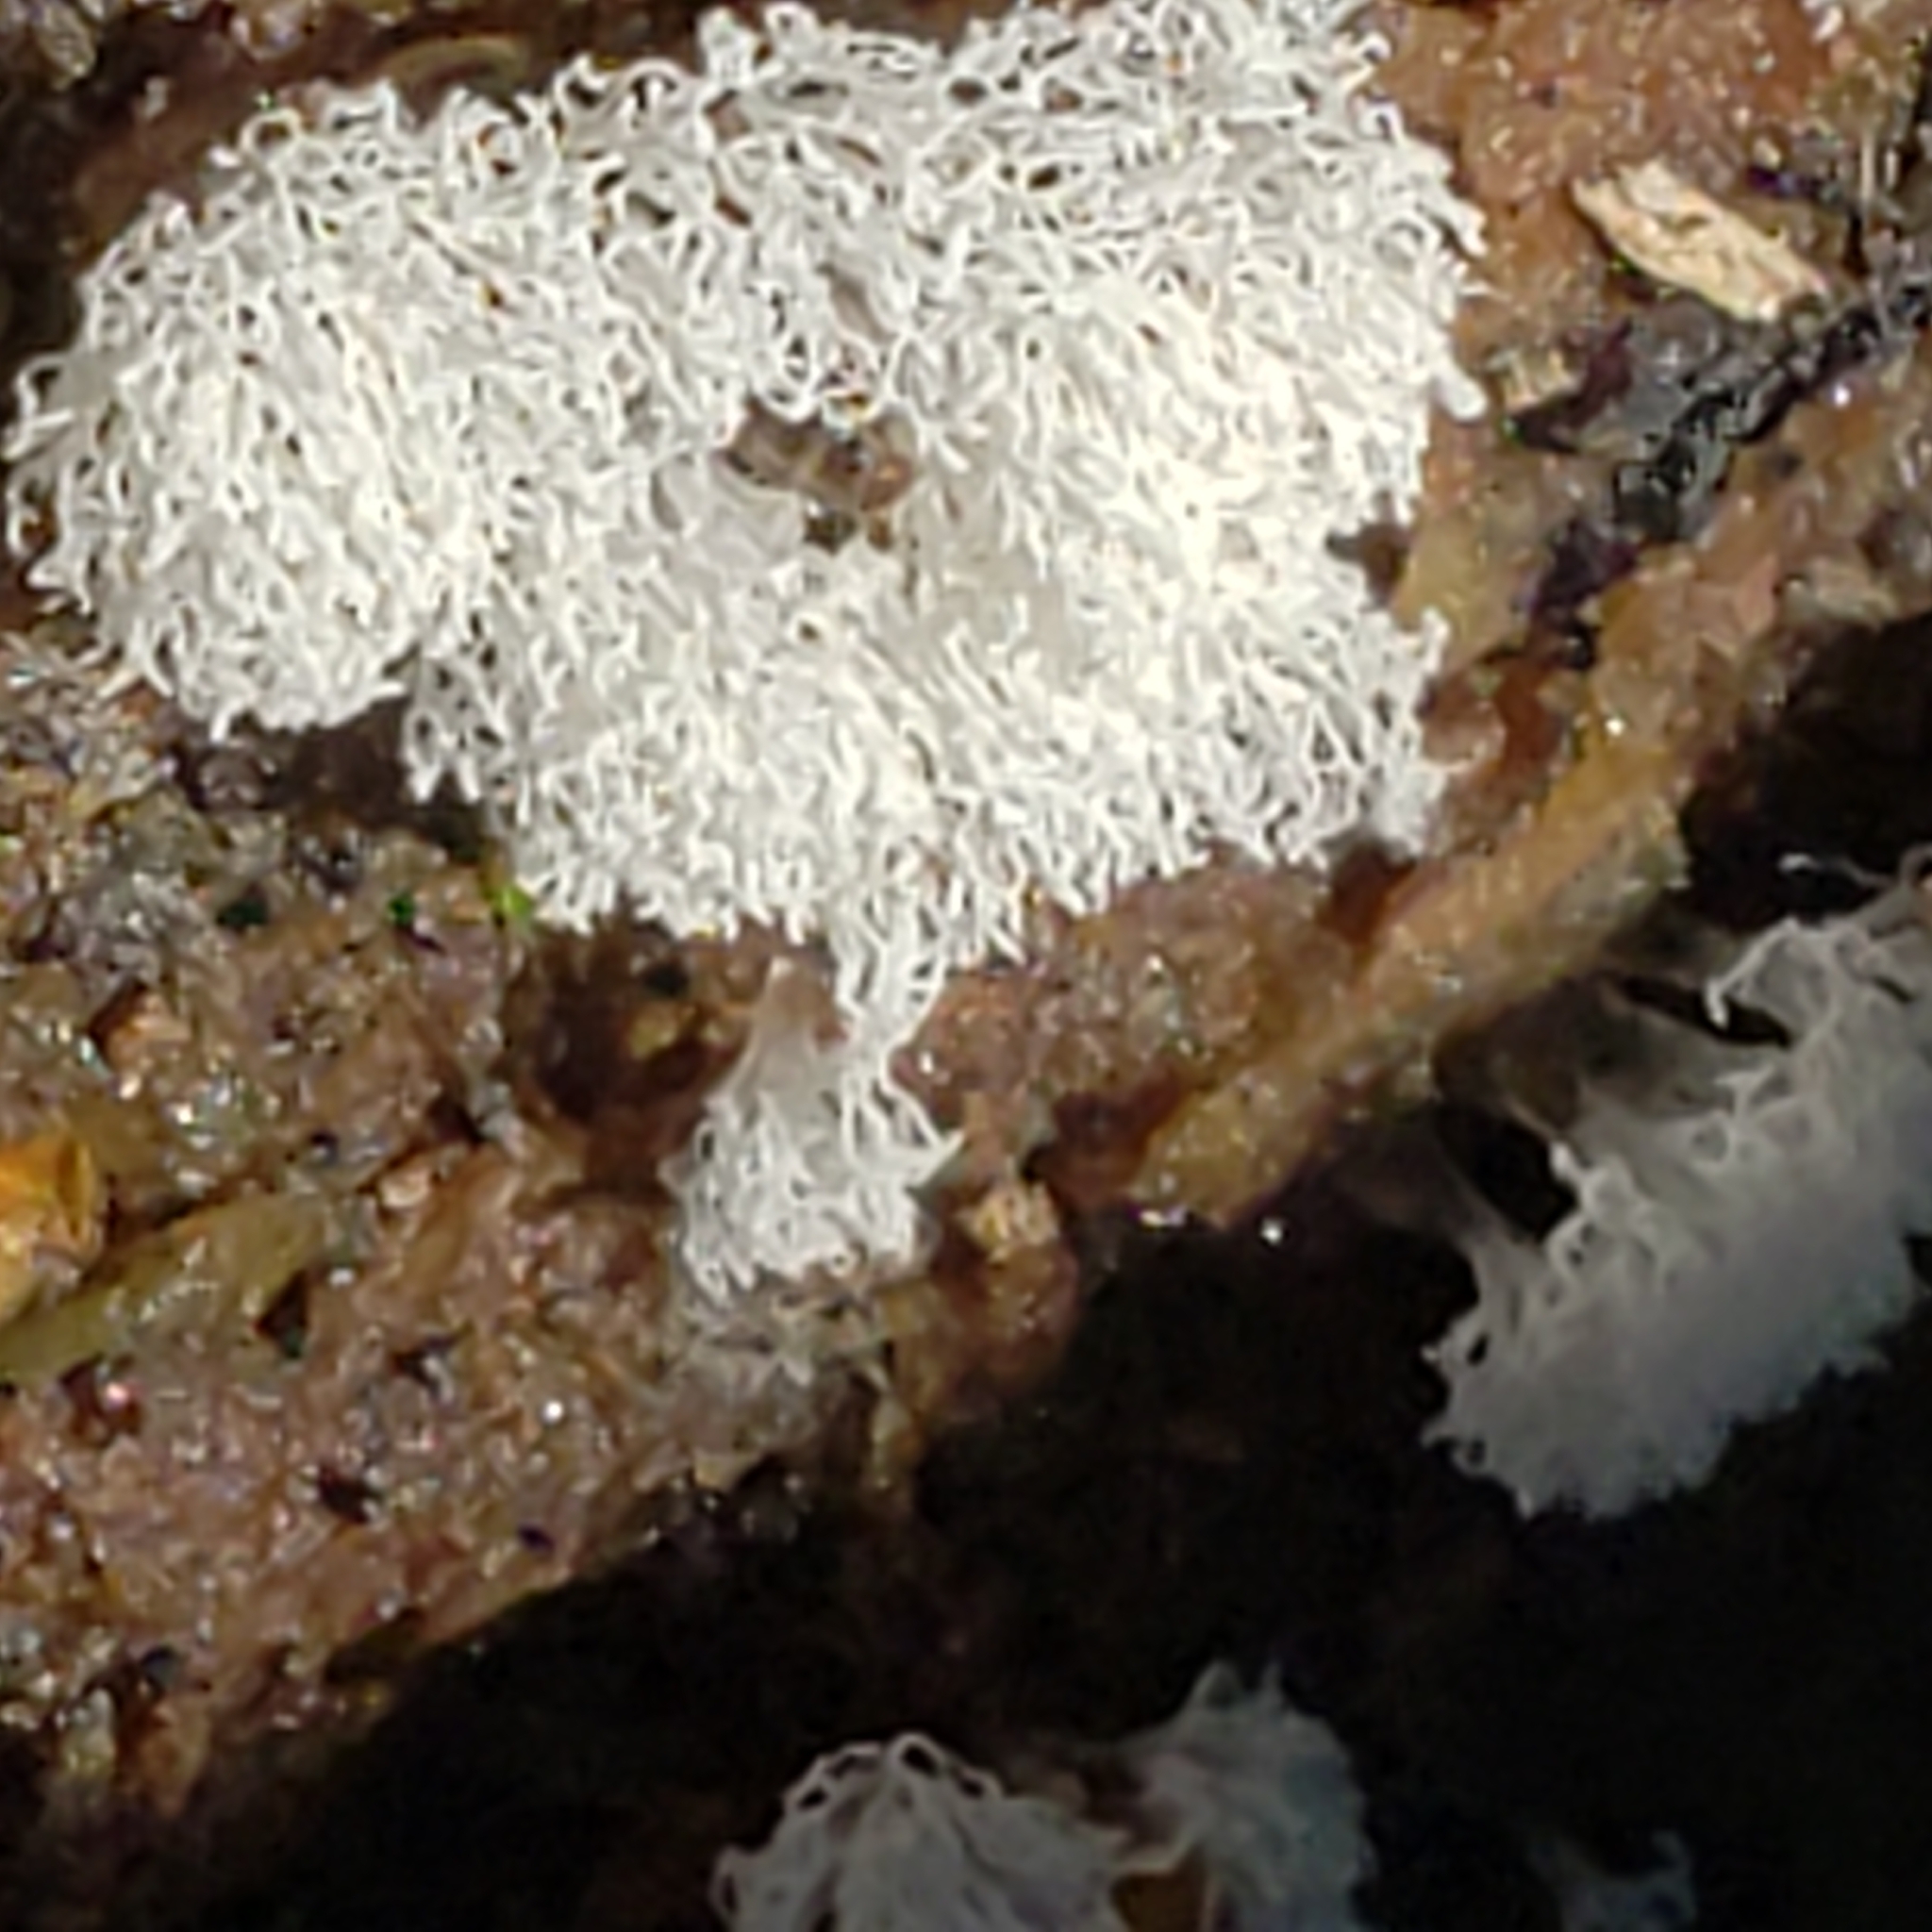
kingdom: Protozoa
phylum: Mycetozoa
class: Protosteliomycetes
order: Ceratiomyxales
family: Ceratiomyxaceae
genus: Ceratiomyxa
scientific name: Ceratiomyxa fruticulosa
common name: Honeycomb coral slime mold
